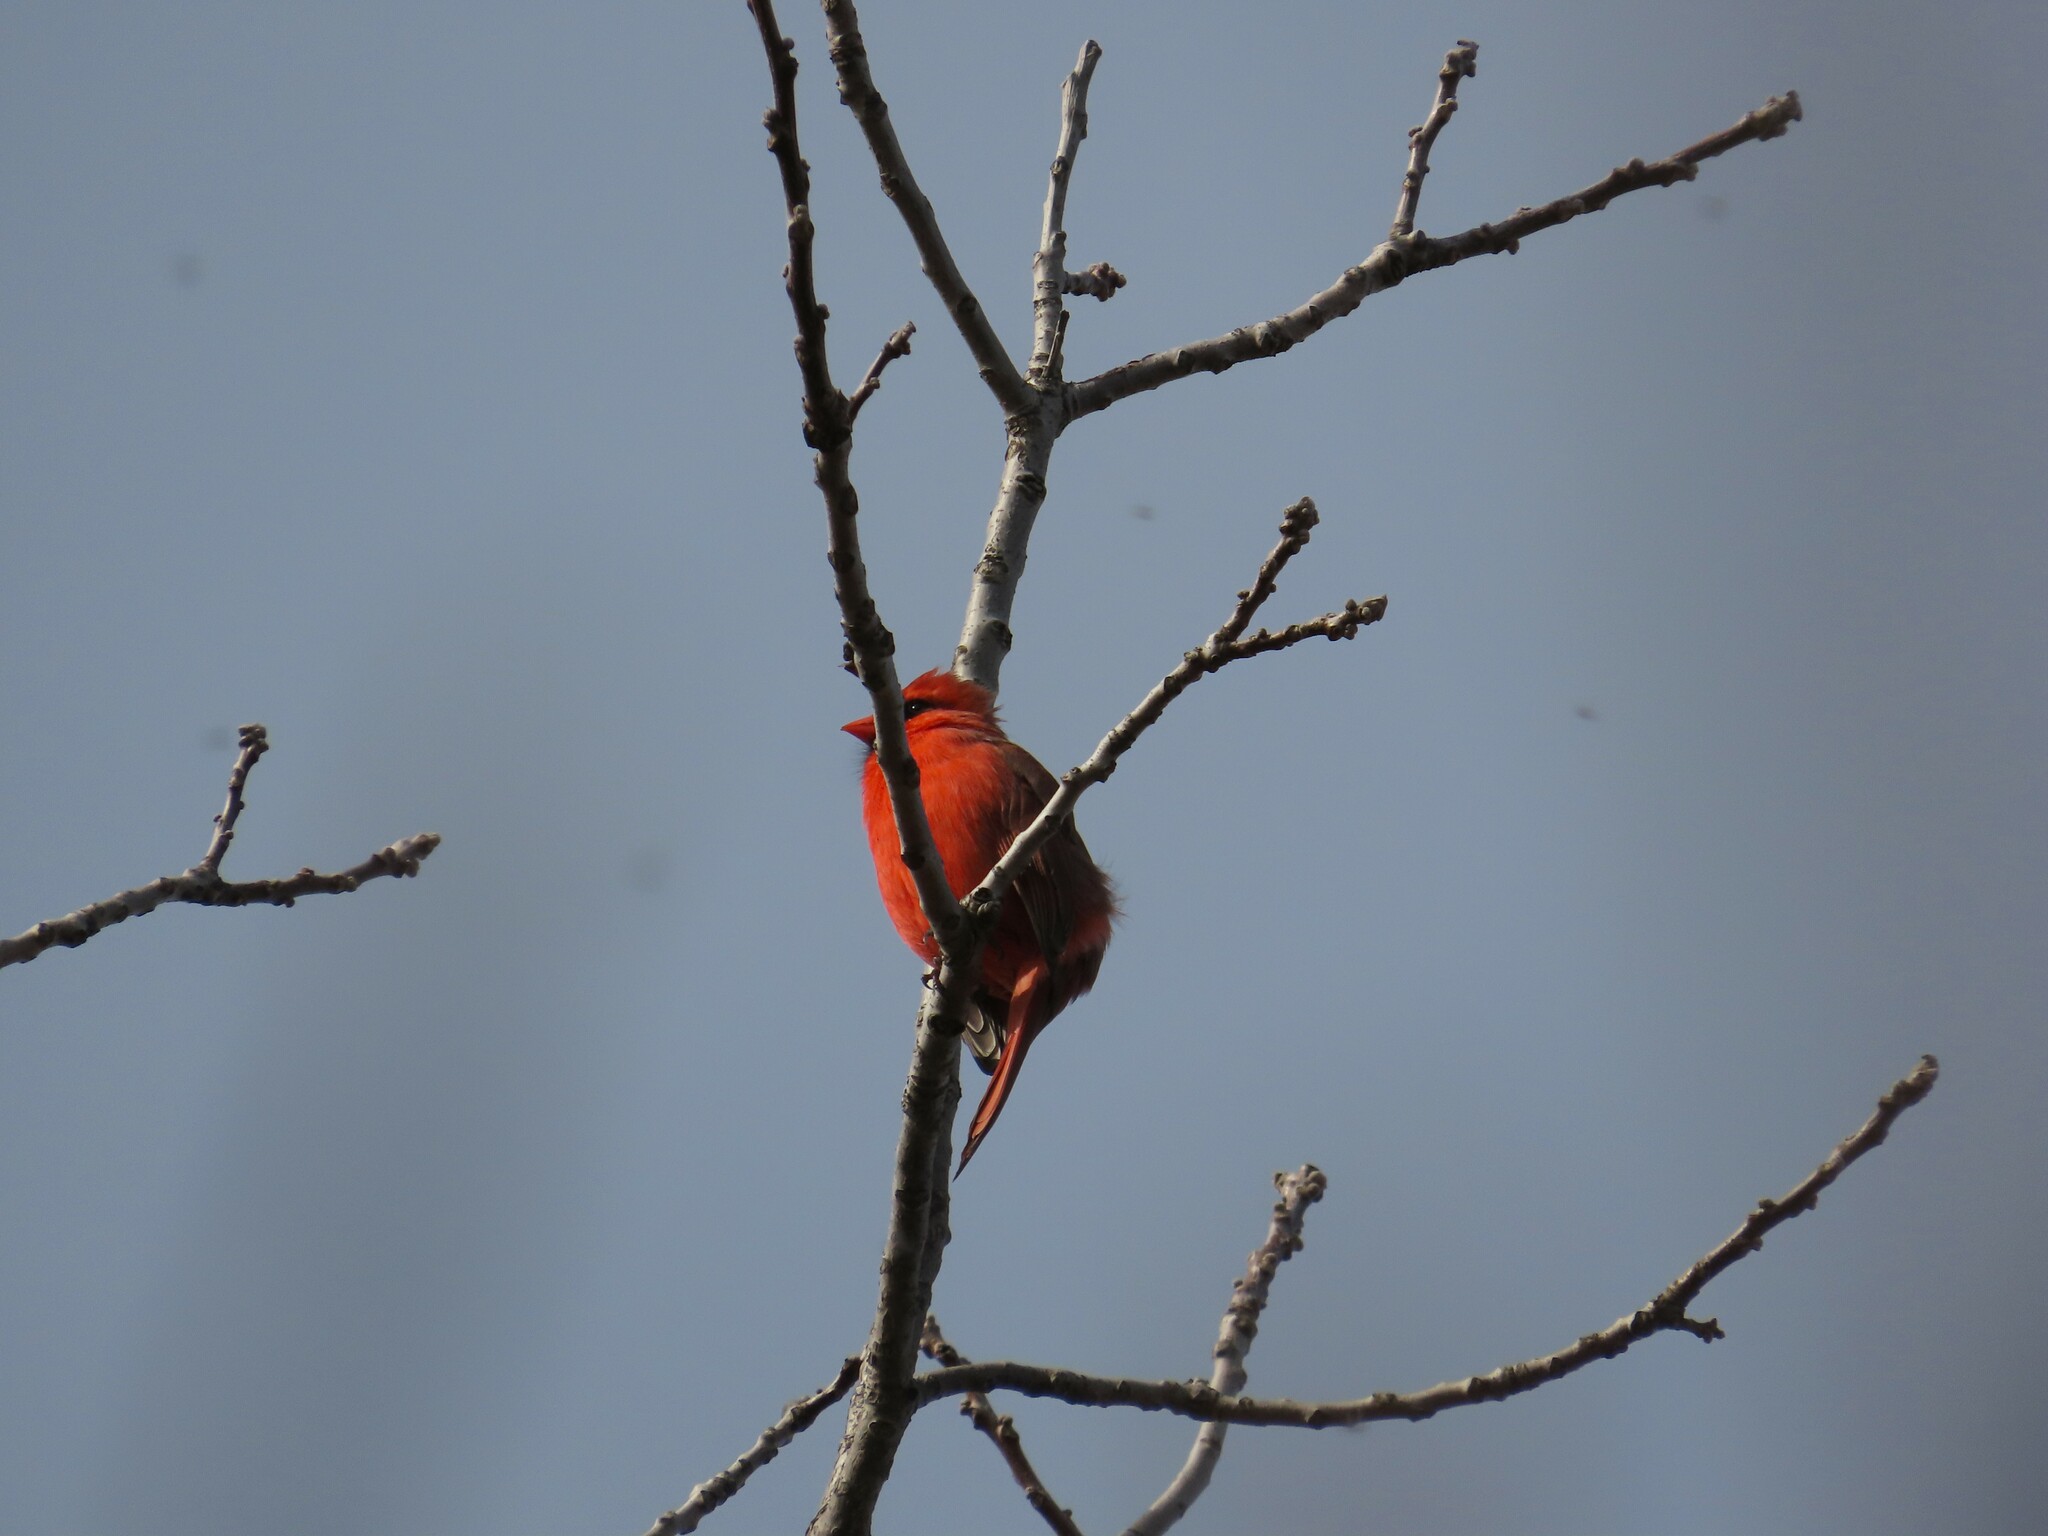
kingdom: Animalia
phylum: Chordata
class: Aves
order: Passeriformes
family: Cardinalidae
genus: Cardinalis
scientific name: Cardinalis cardinalis
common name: Northern cardinal
